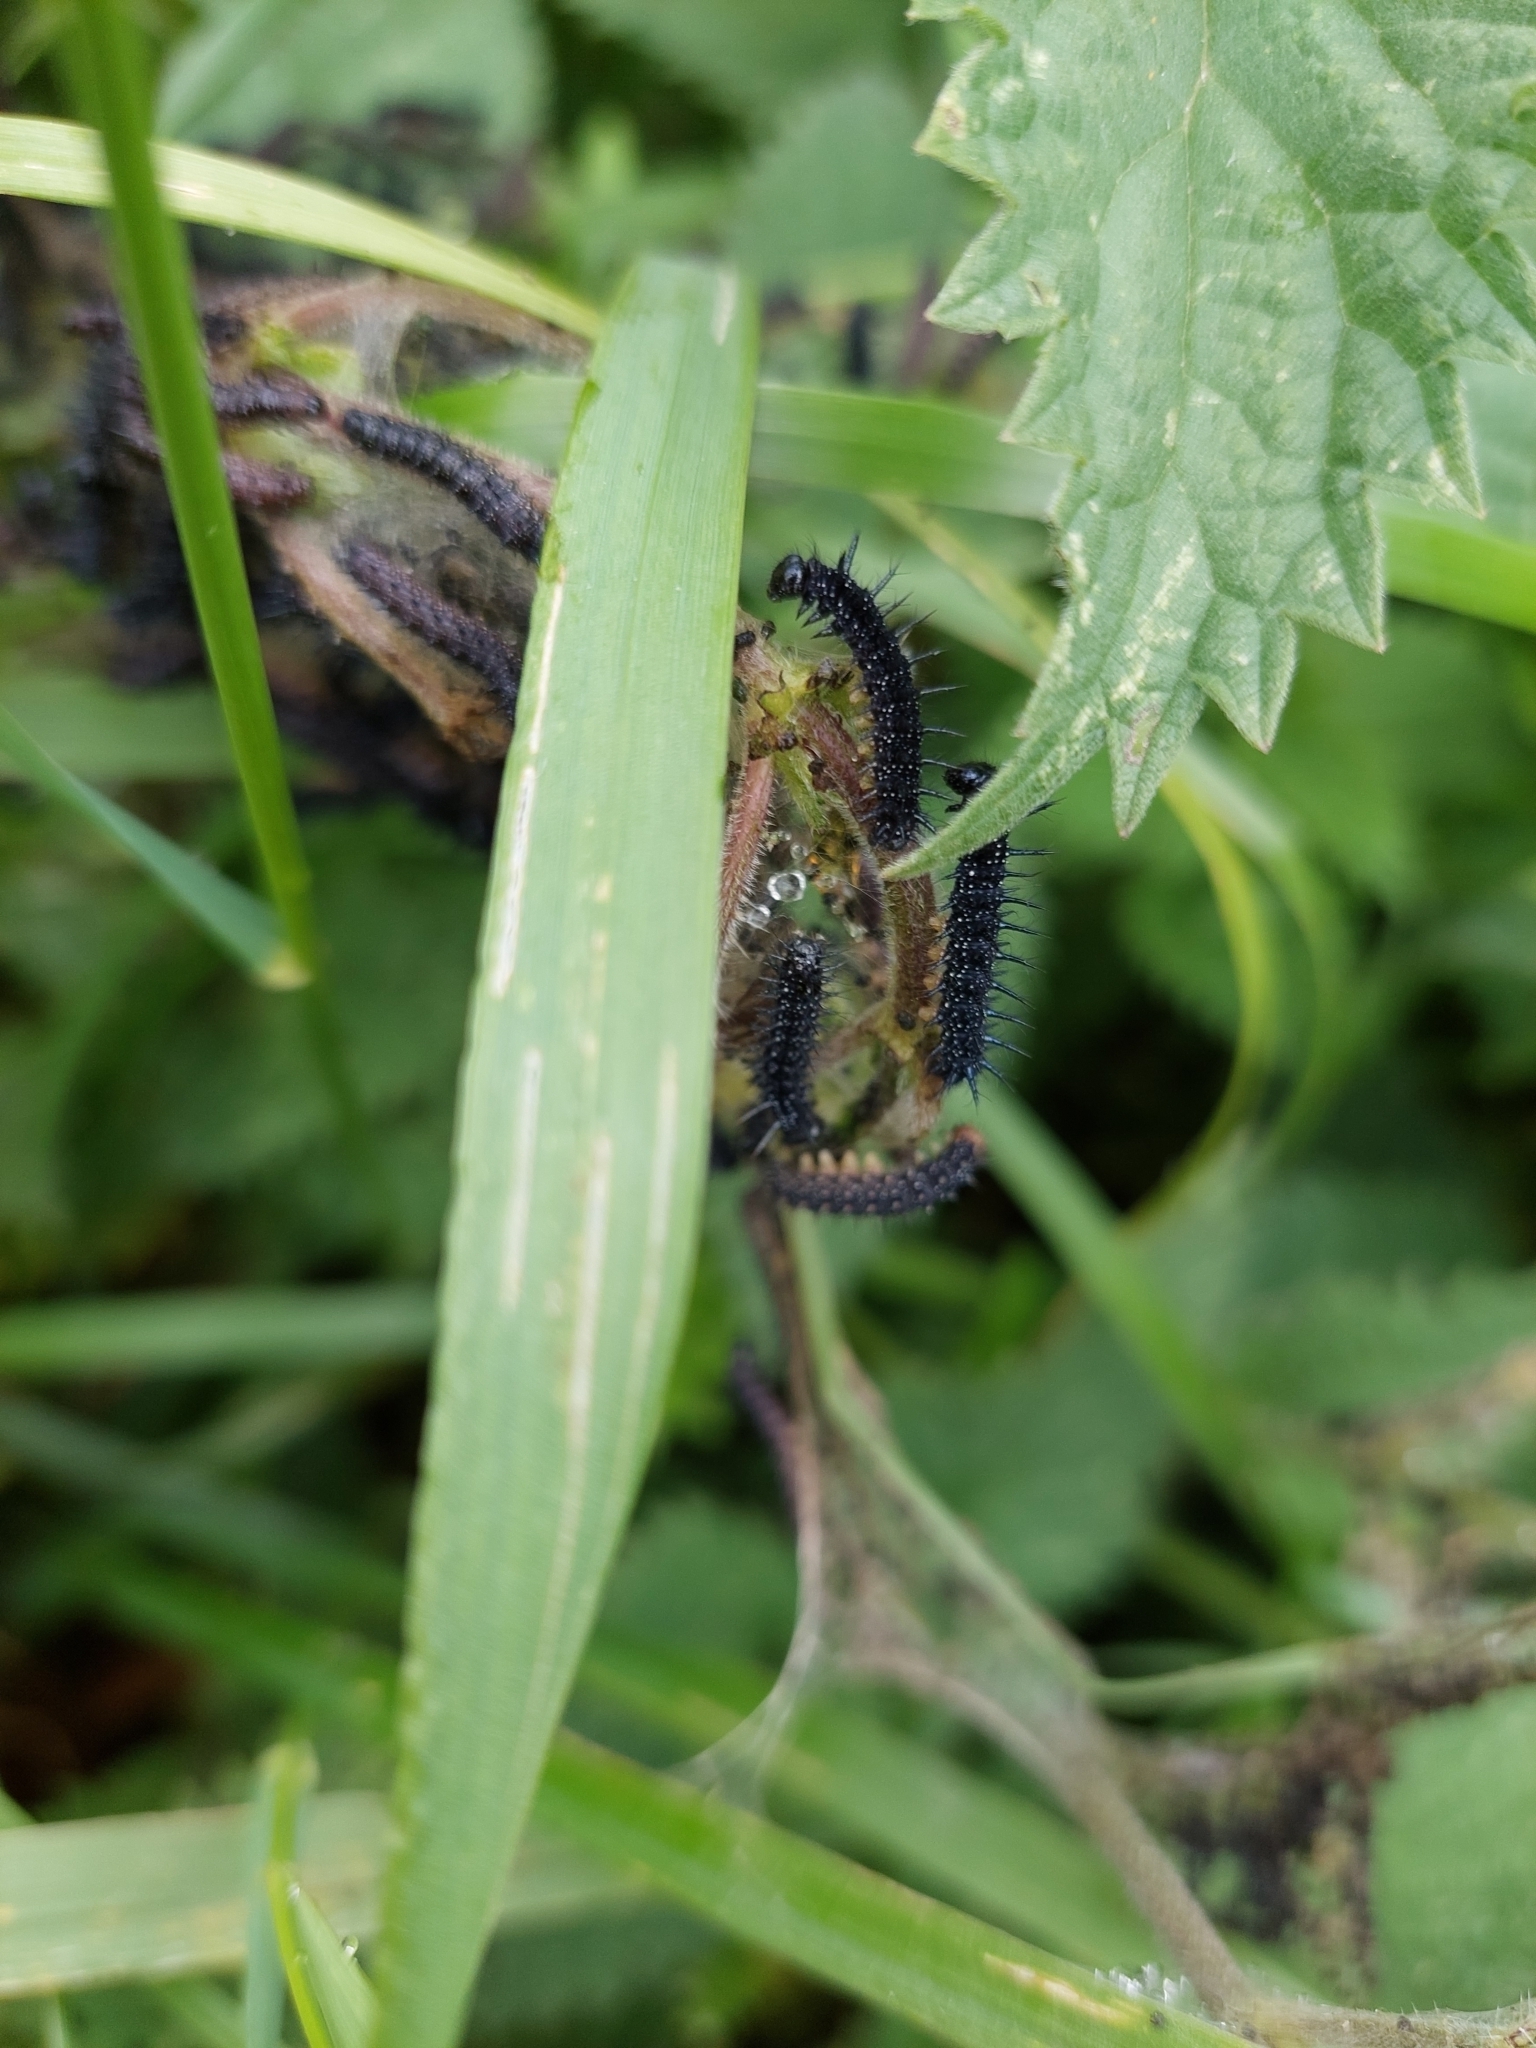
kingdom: Animalia
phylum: Arthropoda
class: Insecta
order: Lepidoptera
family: Nymphalidae
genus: Aglais
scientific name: Aglais io
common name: Peacock
